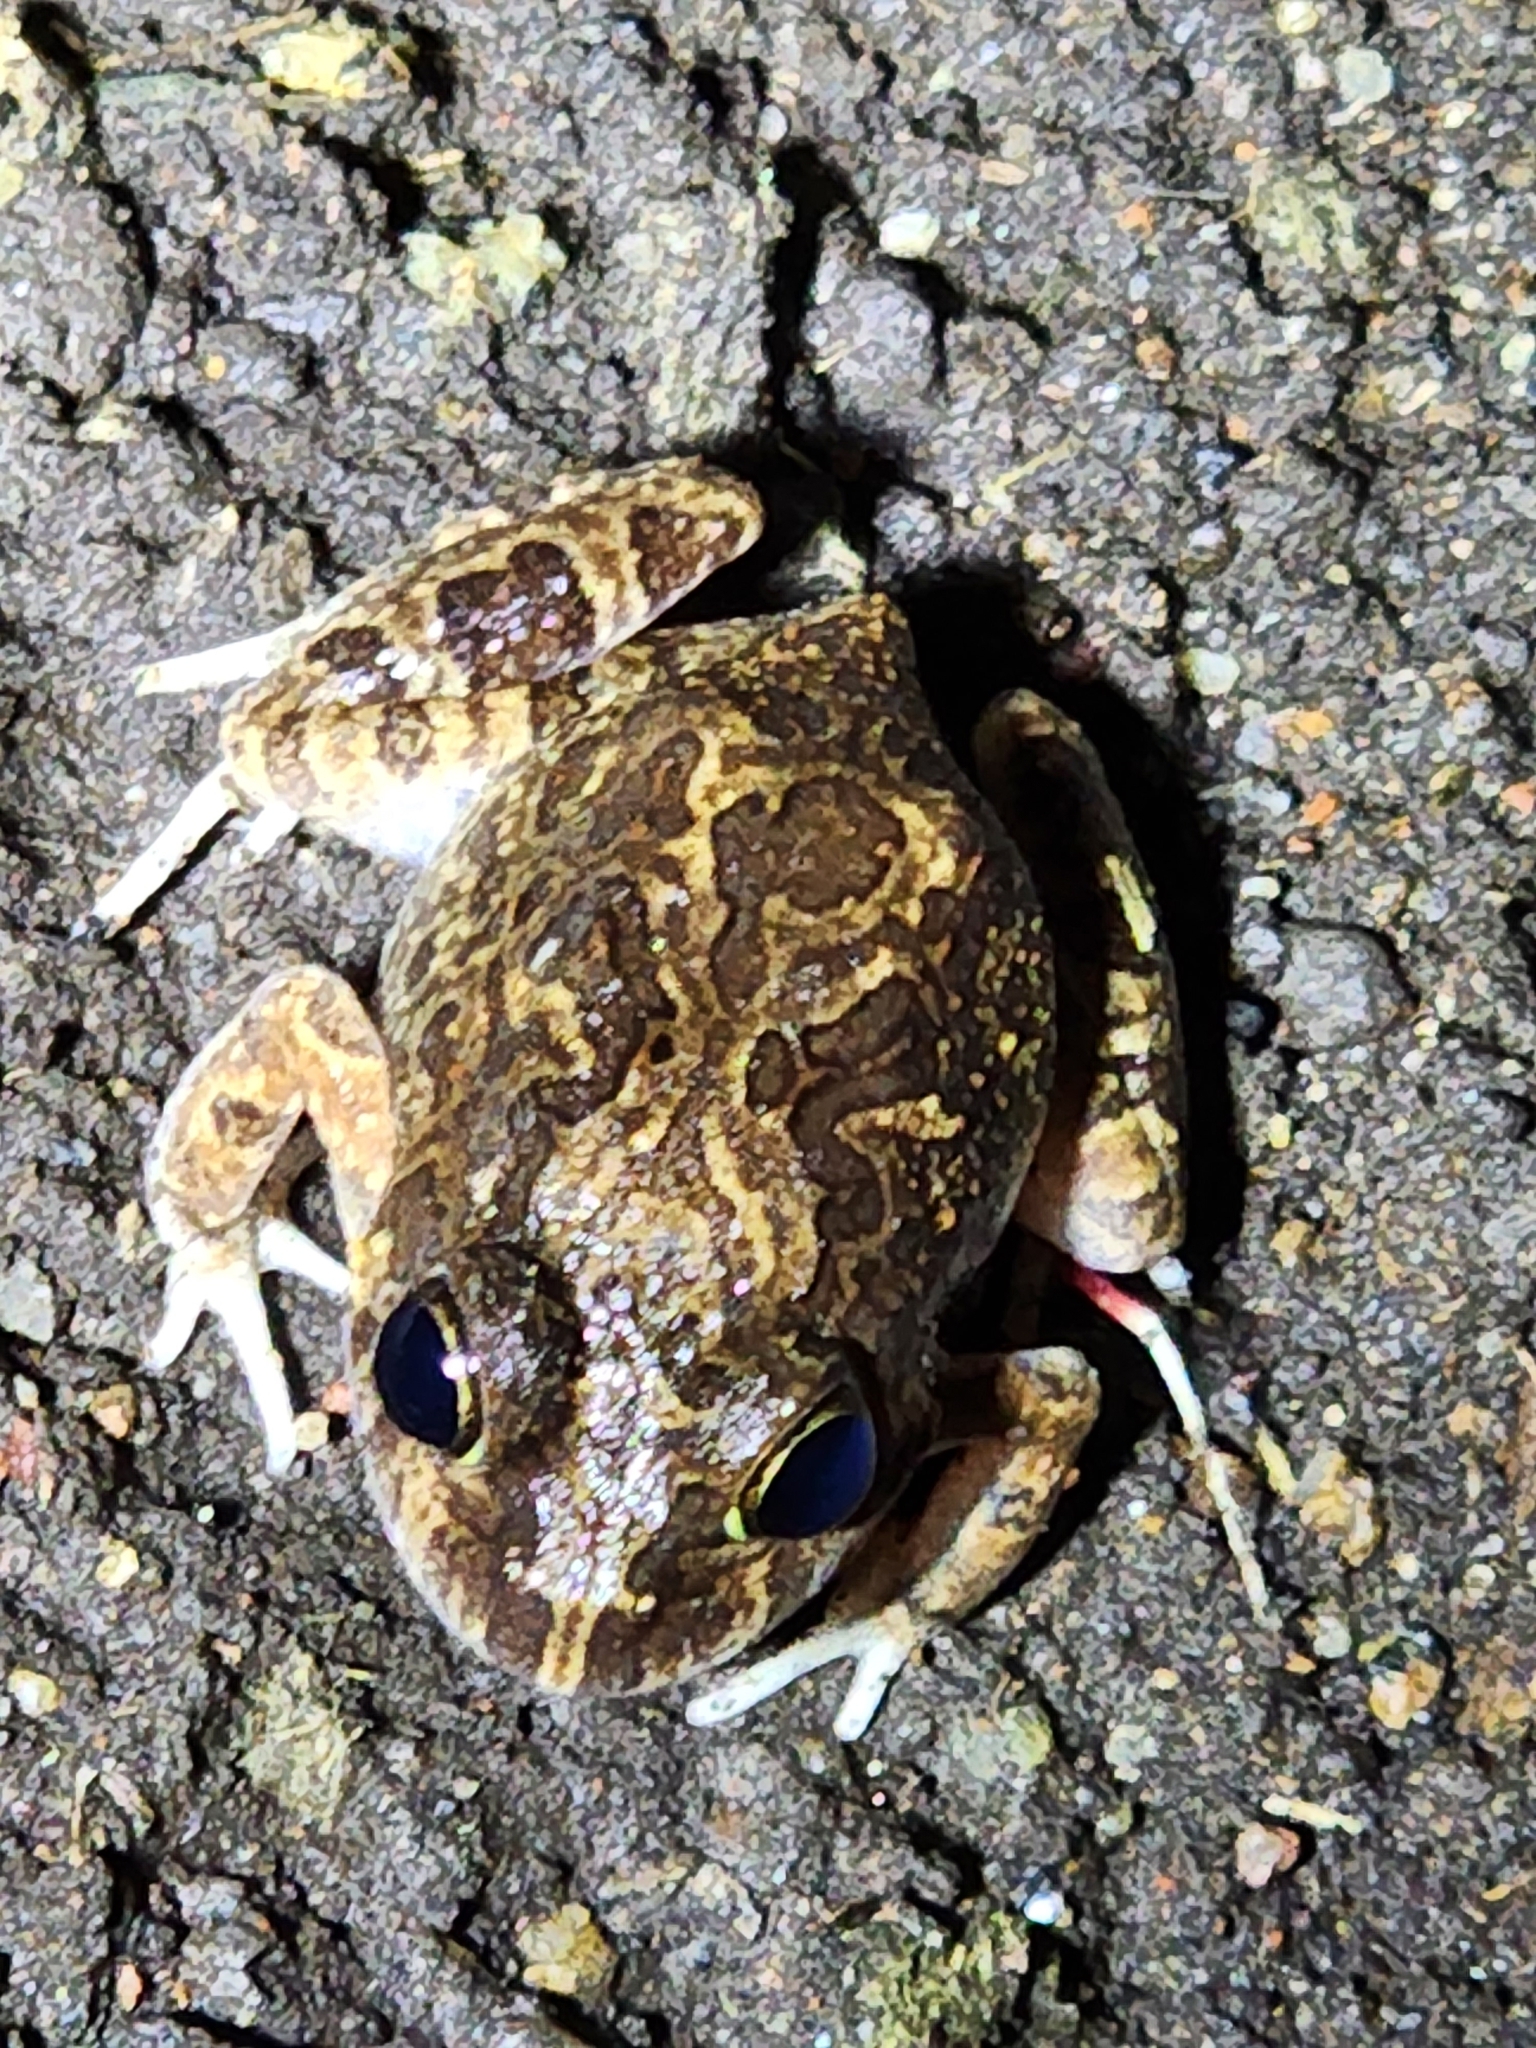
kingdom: Animalia
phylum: Chordata
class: Amphibia
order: Anura
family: Limnodynastidae
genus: Platyplectrum
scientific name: Platyplectrum ornatum
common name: Ornate burrowing frog
